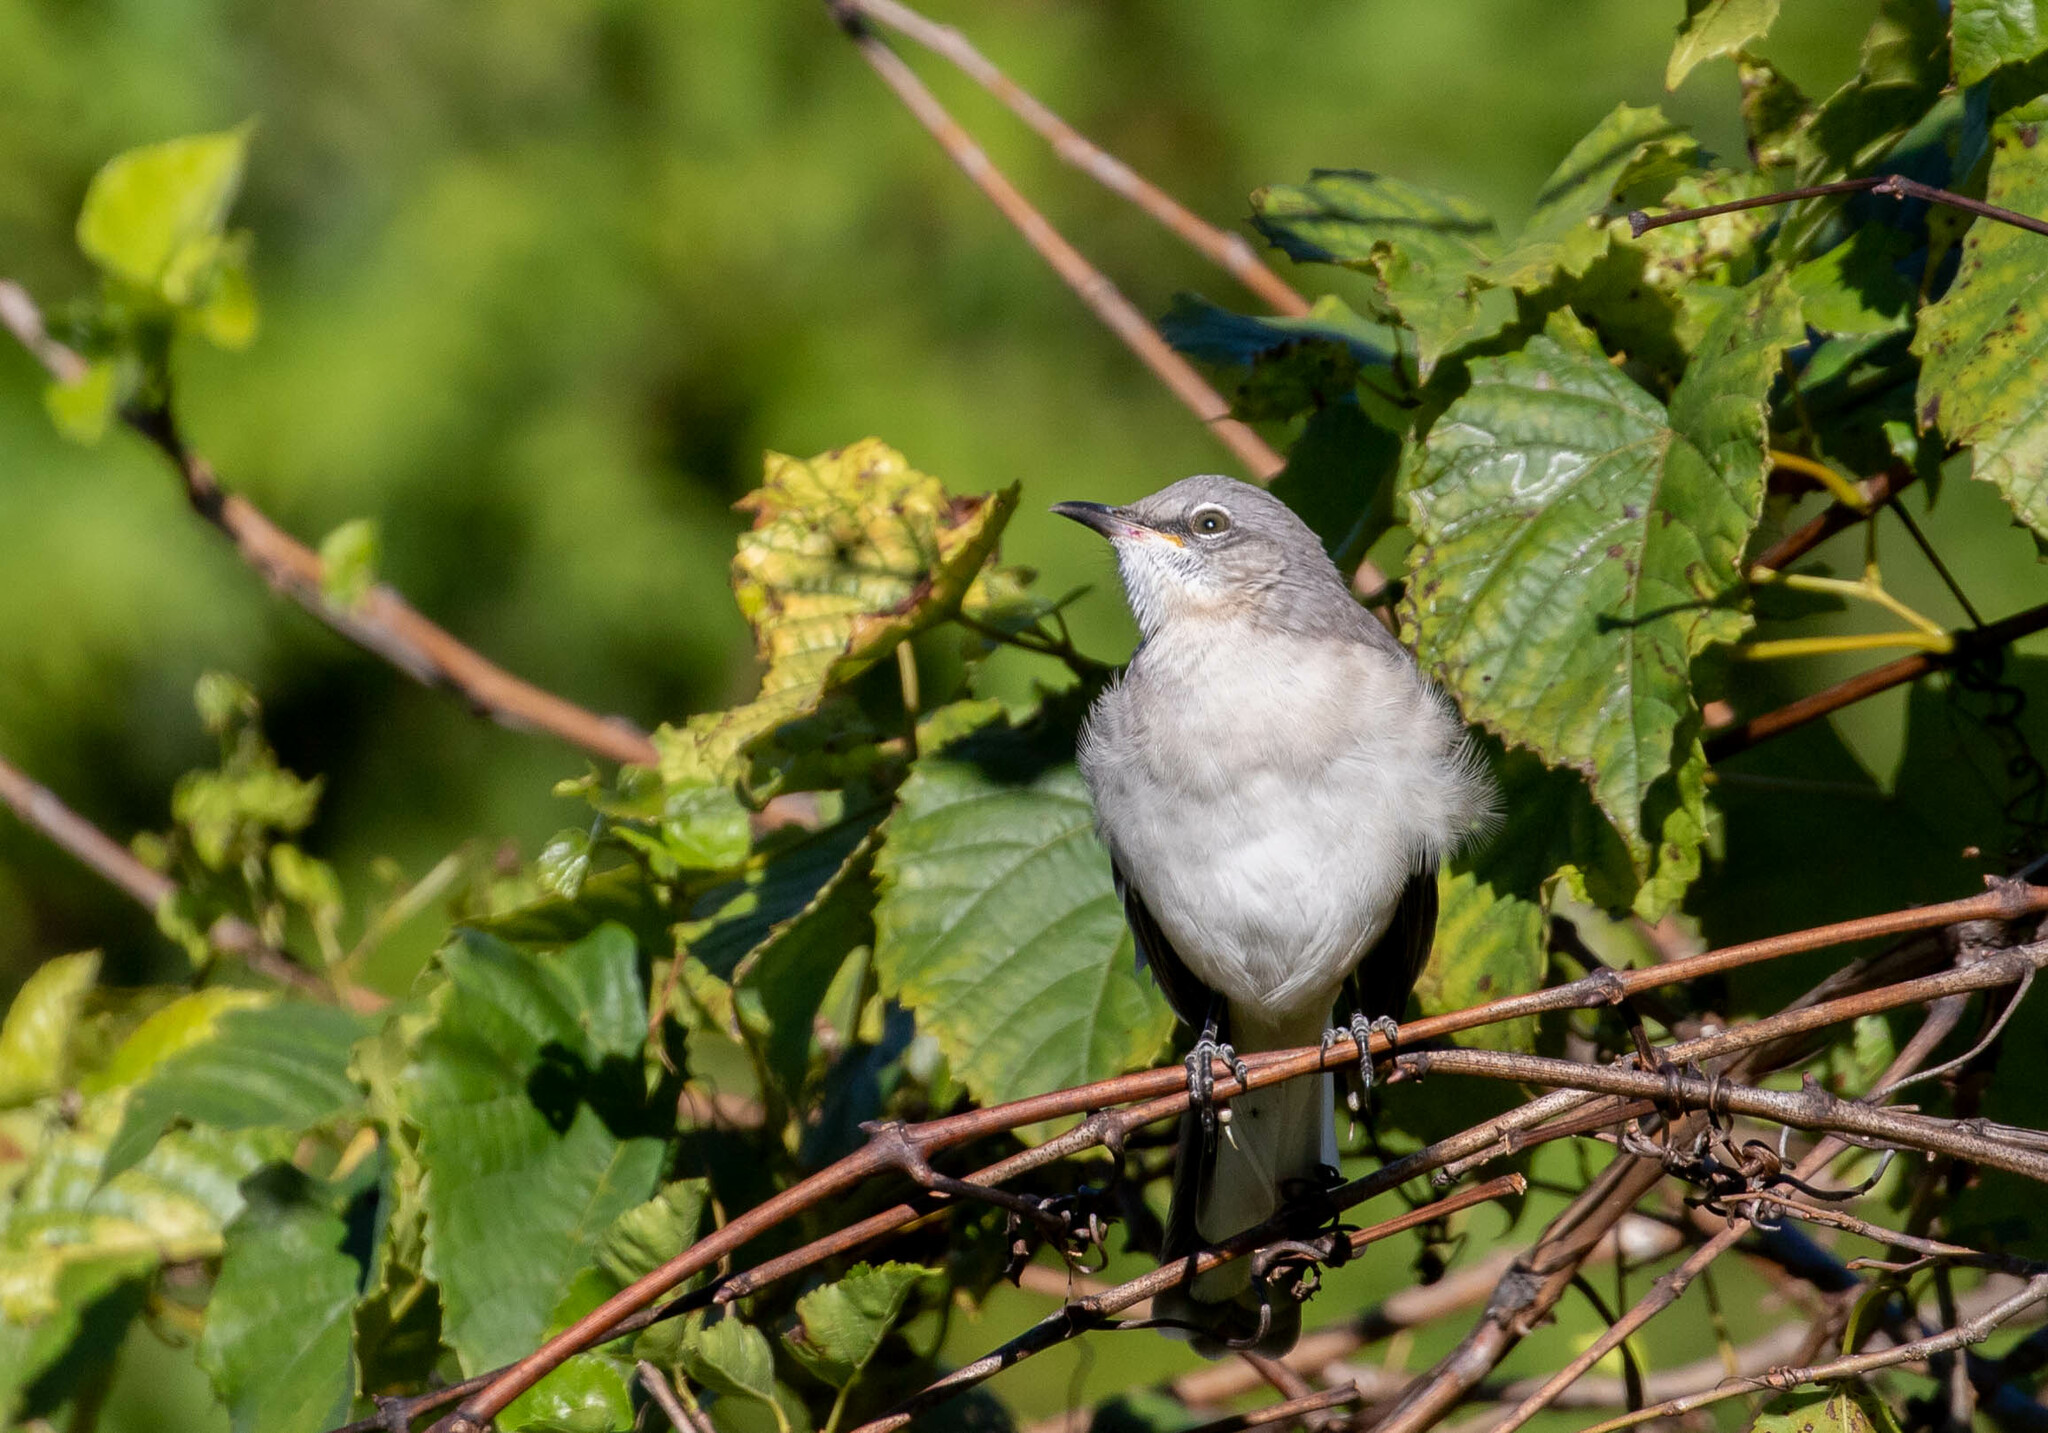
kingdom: Animalia
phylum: Chordata
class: Aves
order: Passeriformes
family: Mimidae
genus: Mimus
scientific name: Mimus polyglottos
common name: Northern mockingbird
